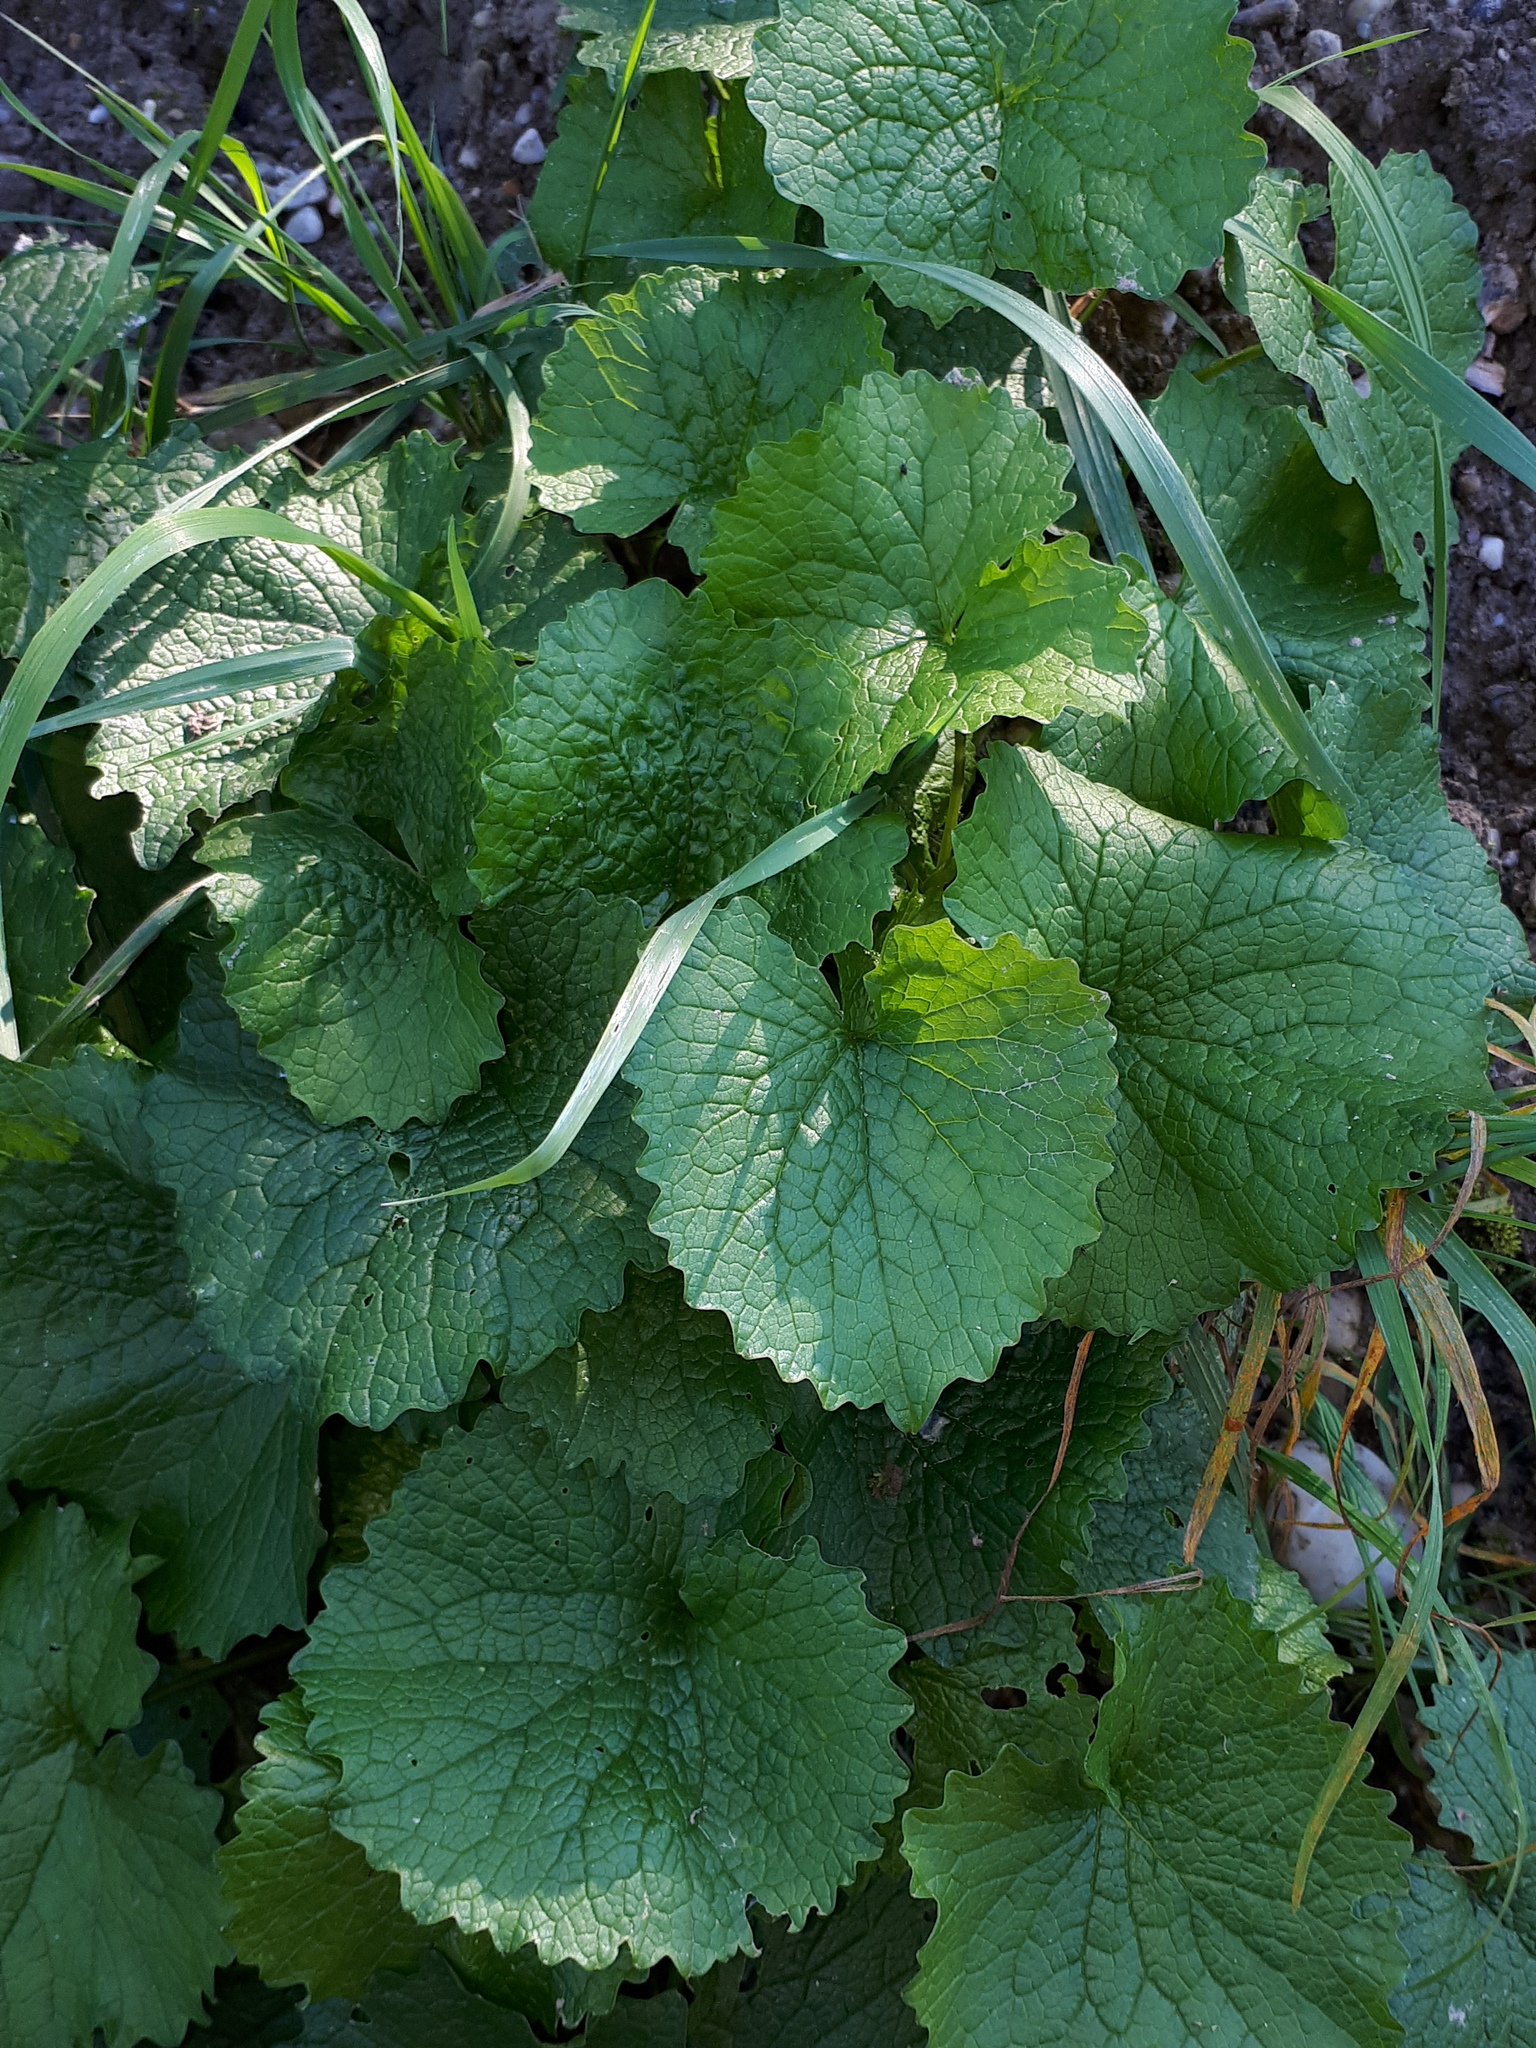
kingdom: Plantae
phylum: Tracheophyta
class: Magnoliopsida
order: Brassicales
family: Brassicaceae
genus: Alliaria
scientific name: Alliaria petiolata
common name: Garlic mustard
